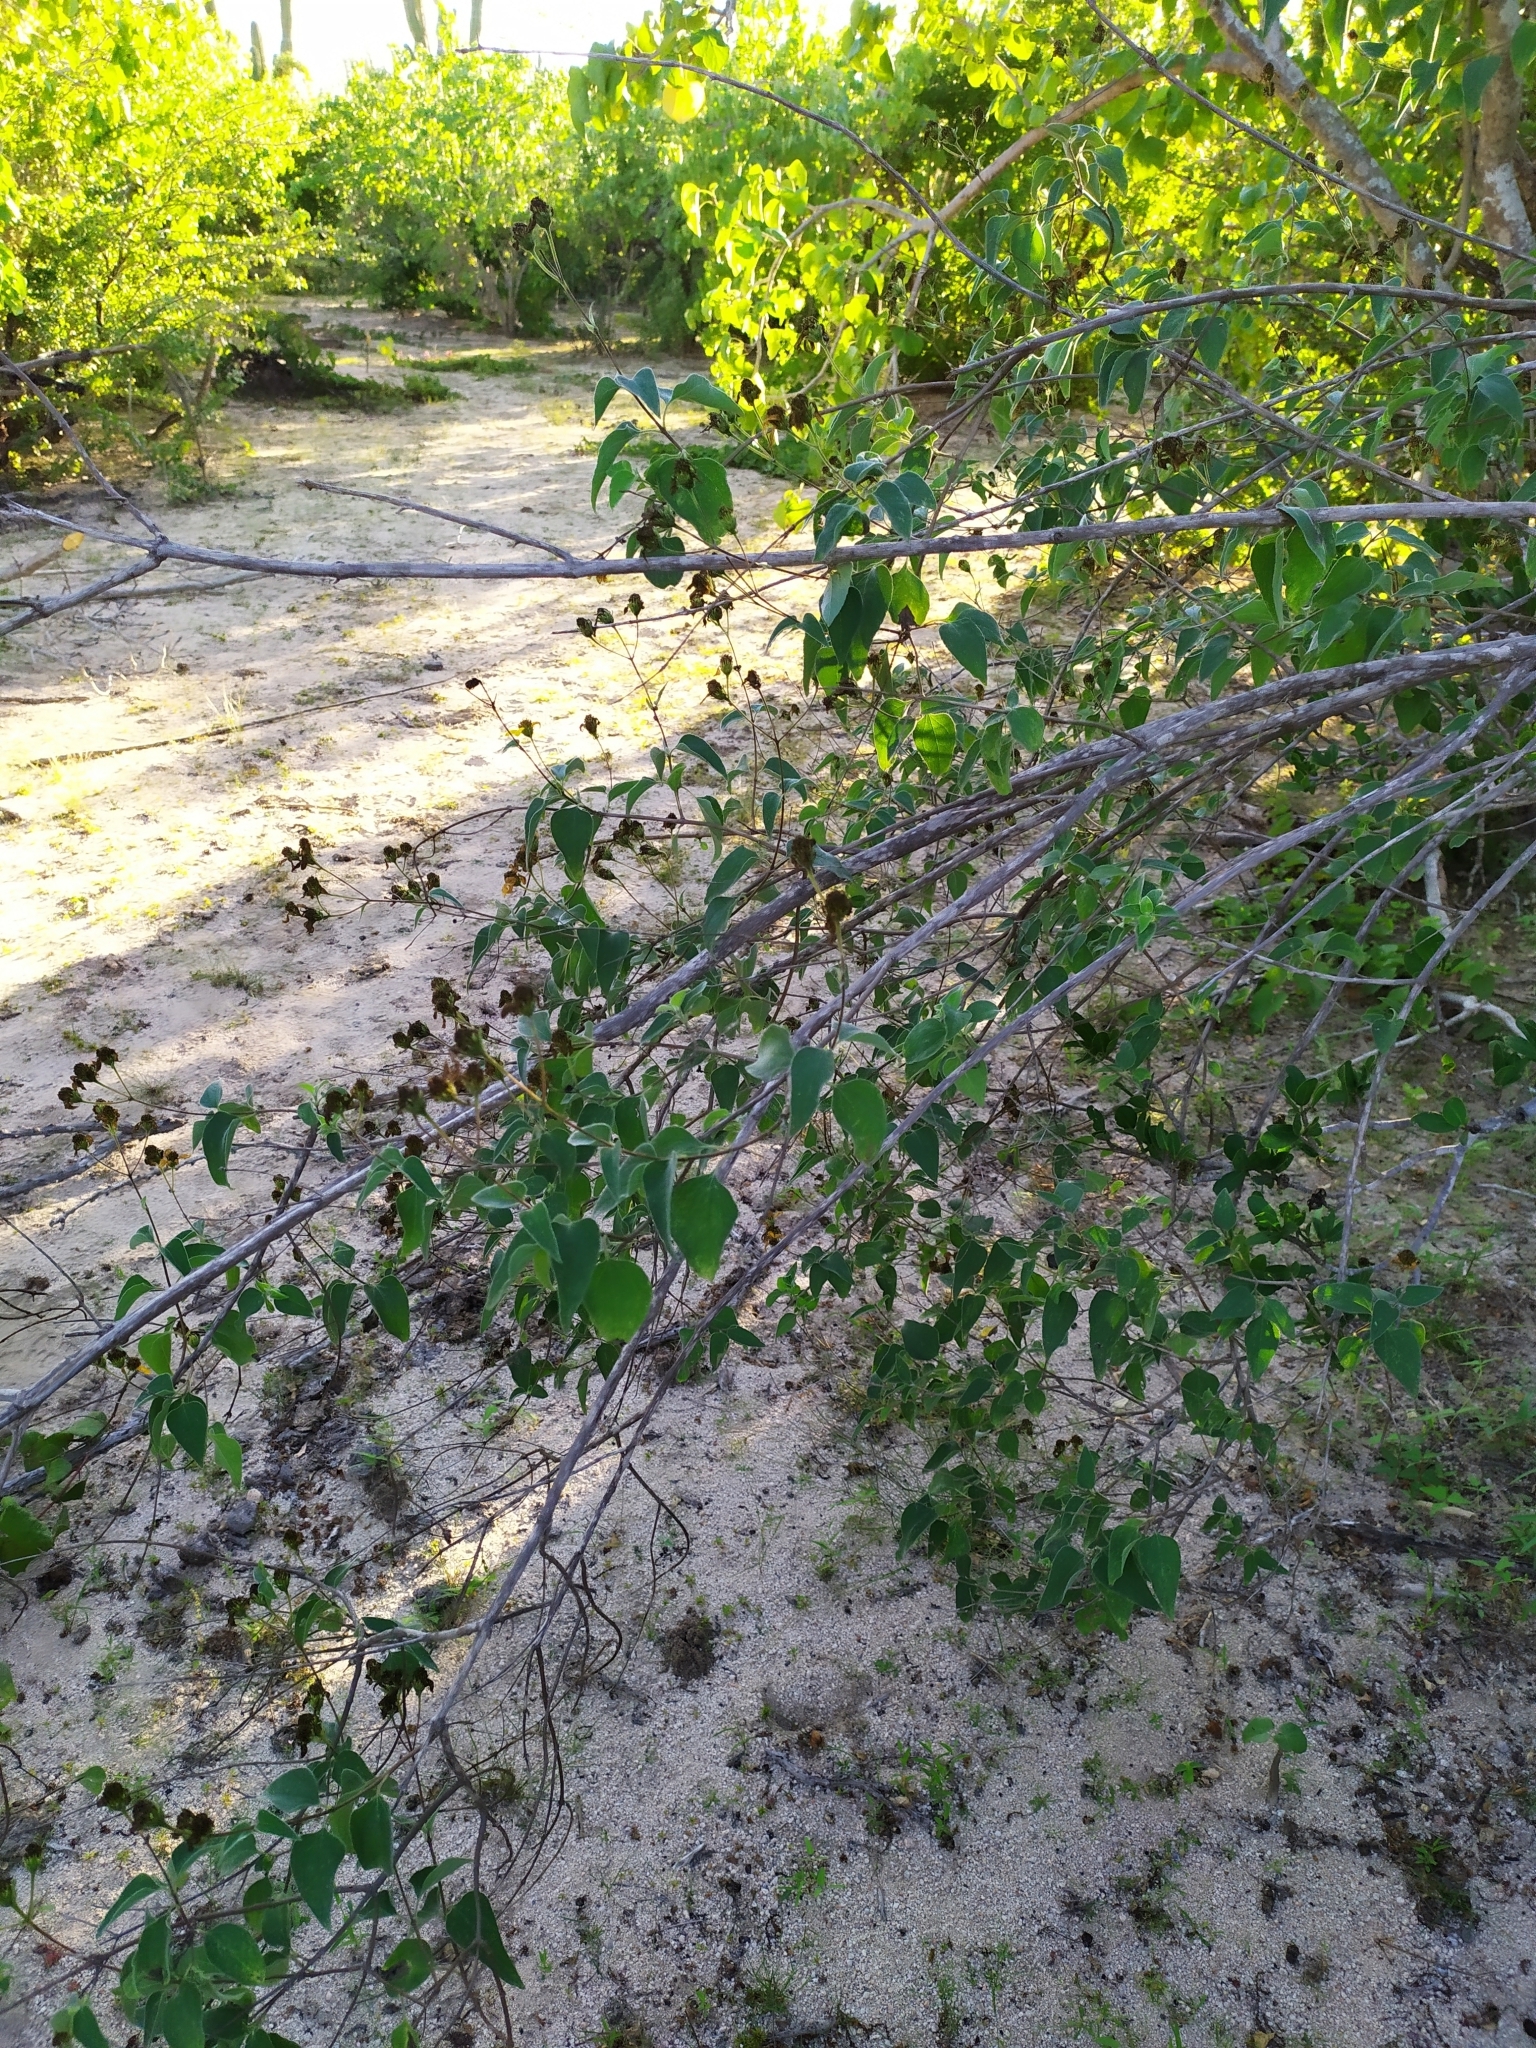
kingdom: Plantae
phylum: Tracheophyta
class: Magnoliopsida
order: Asterales
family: Asteraceae
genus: Bahiopsis
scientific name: Bahiopsis tomentosa
